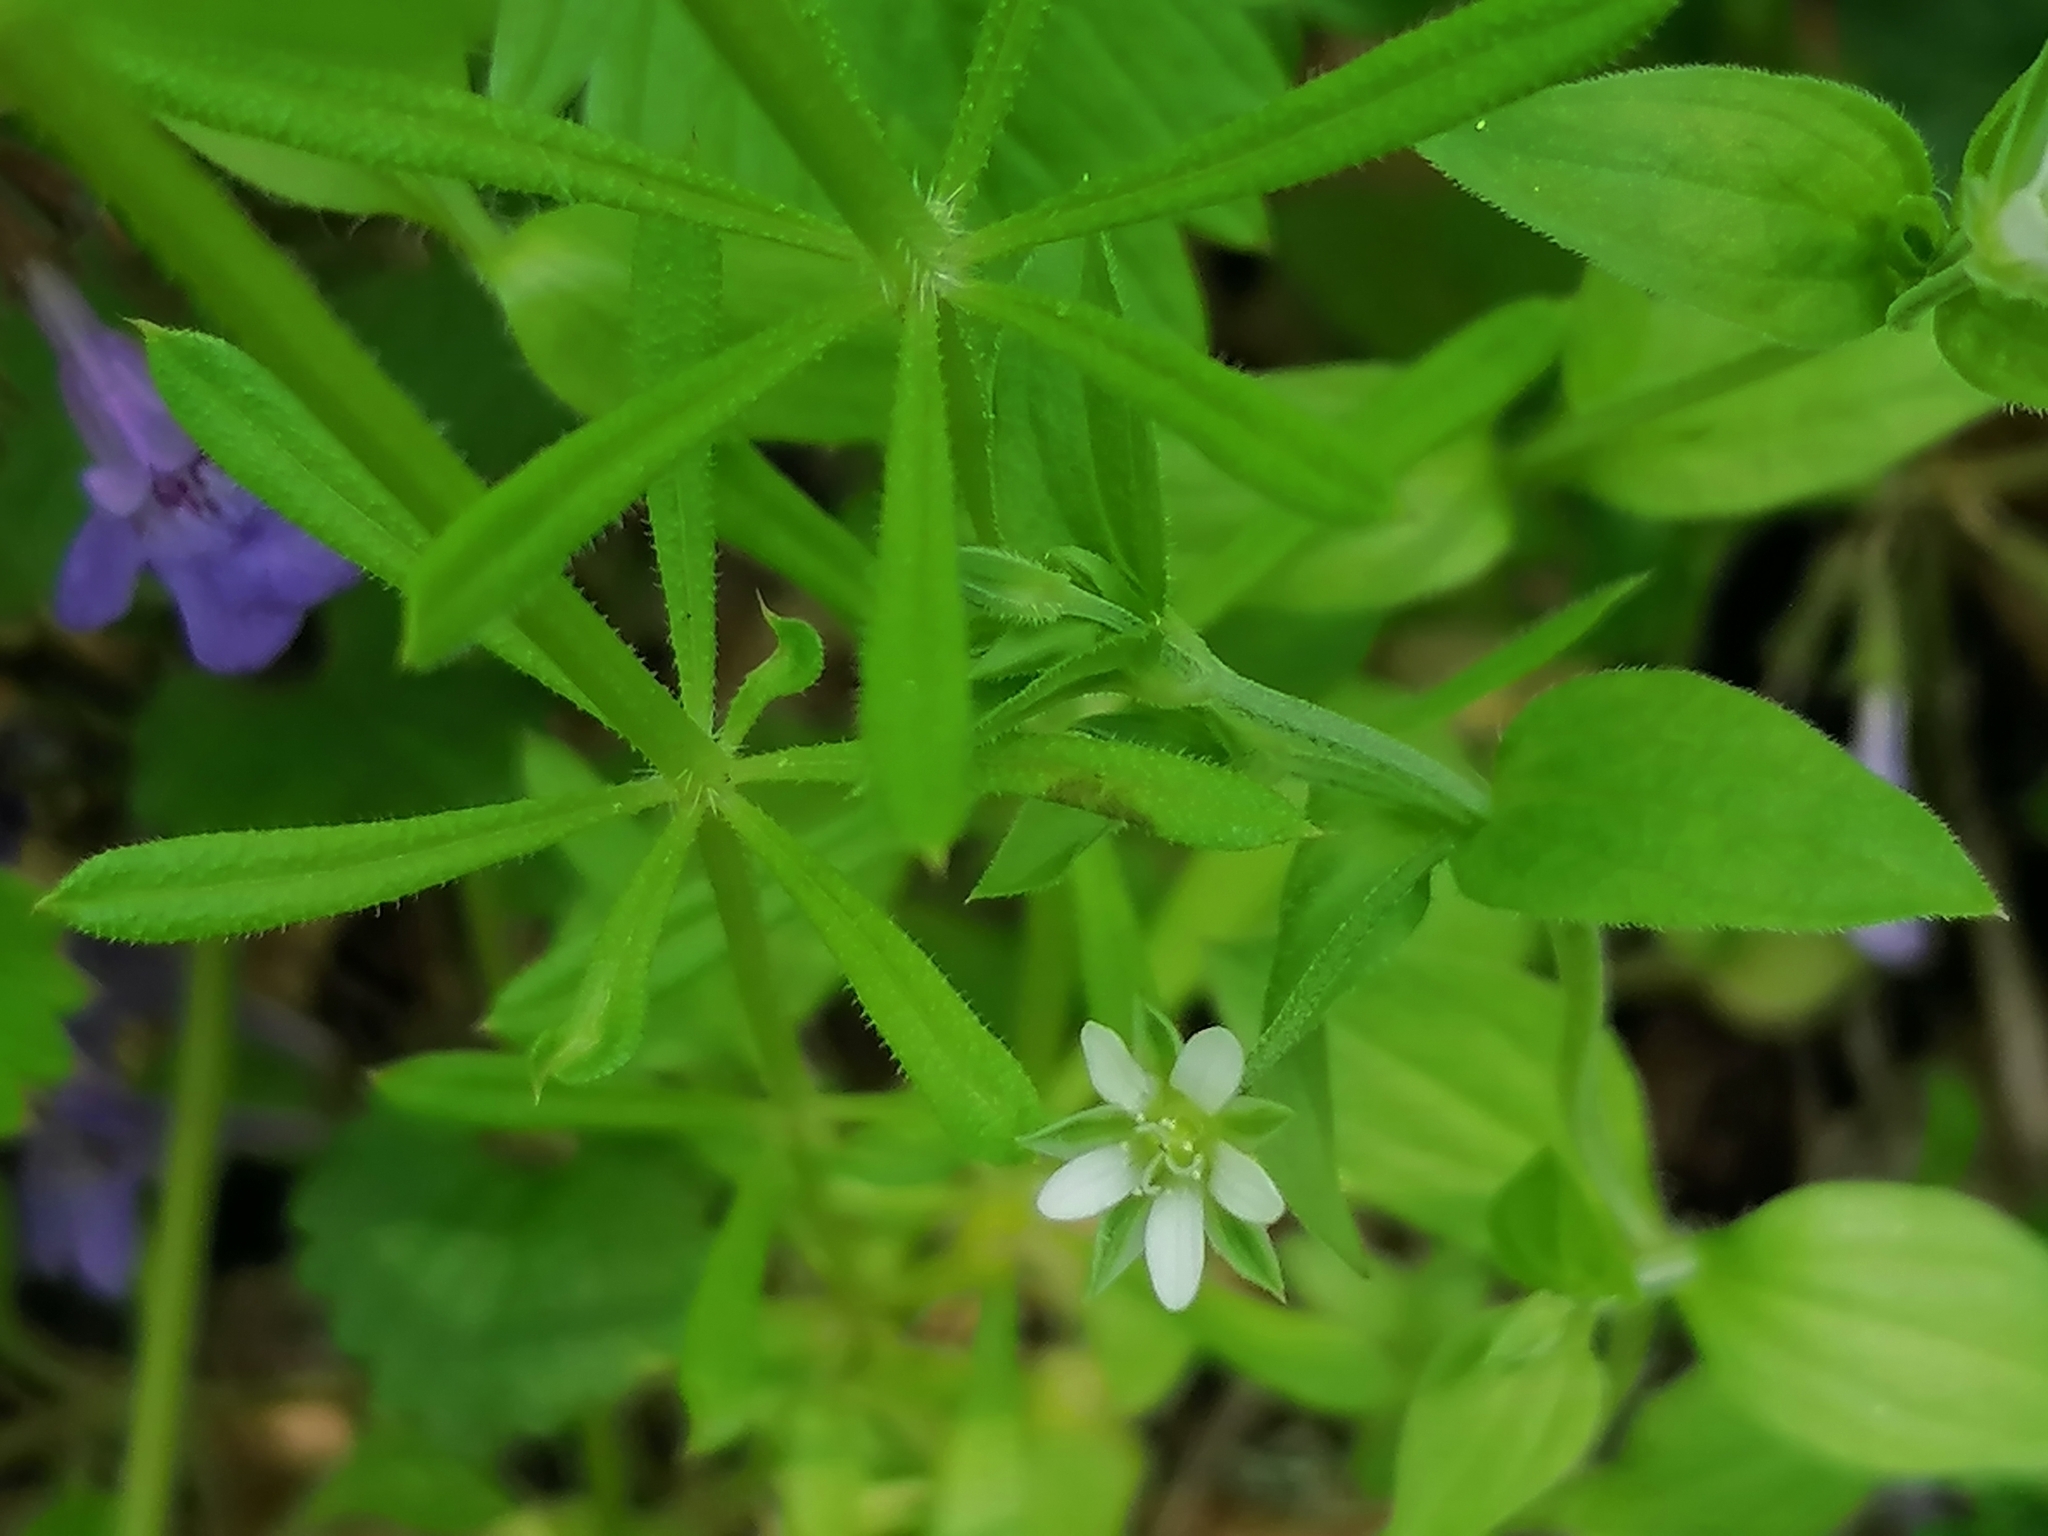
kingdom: Plantae
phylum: Tracheophyta
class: Magnoliopsida
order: Gentianales
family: Rubiaceae
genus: Galium
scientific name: Galium aparine
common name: Cleavers
